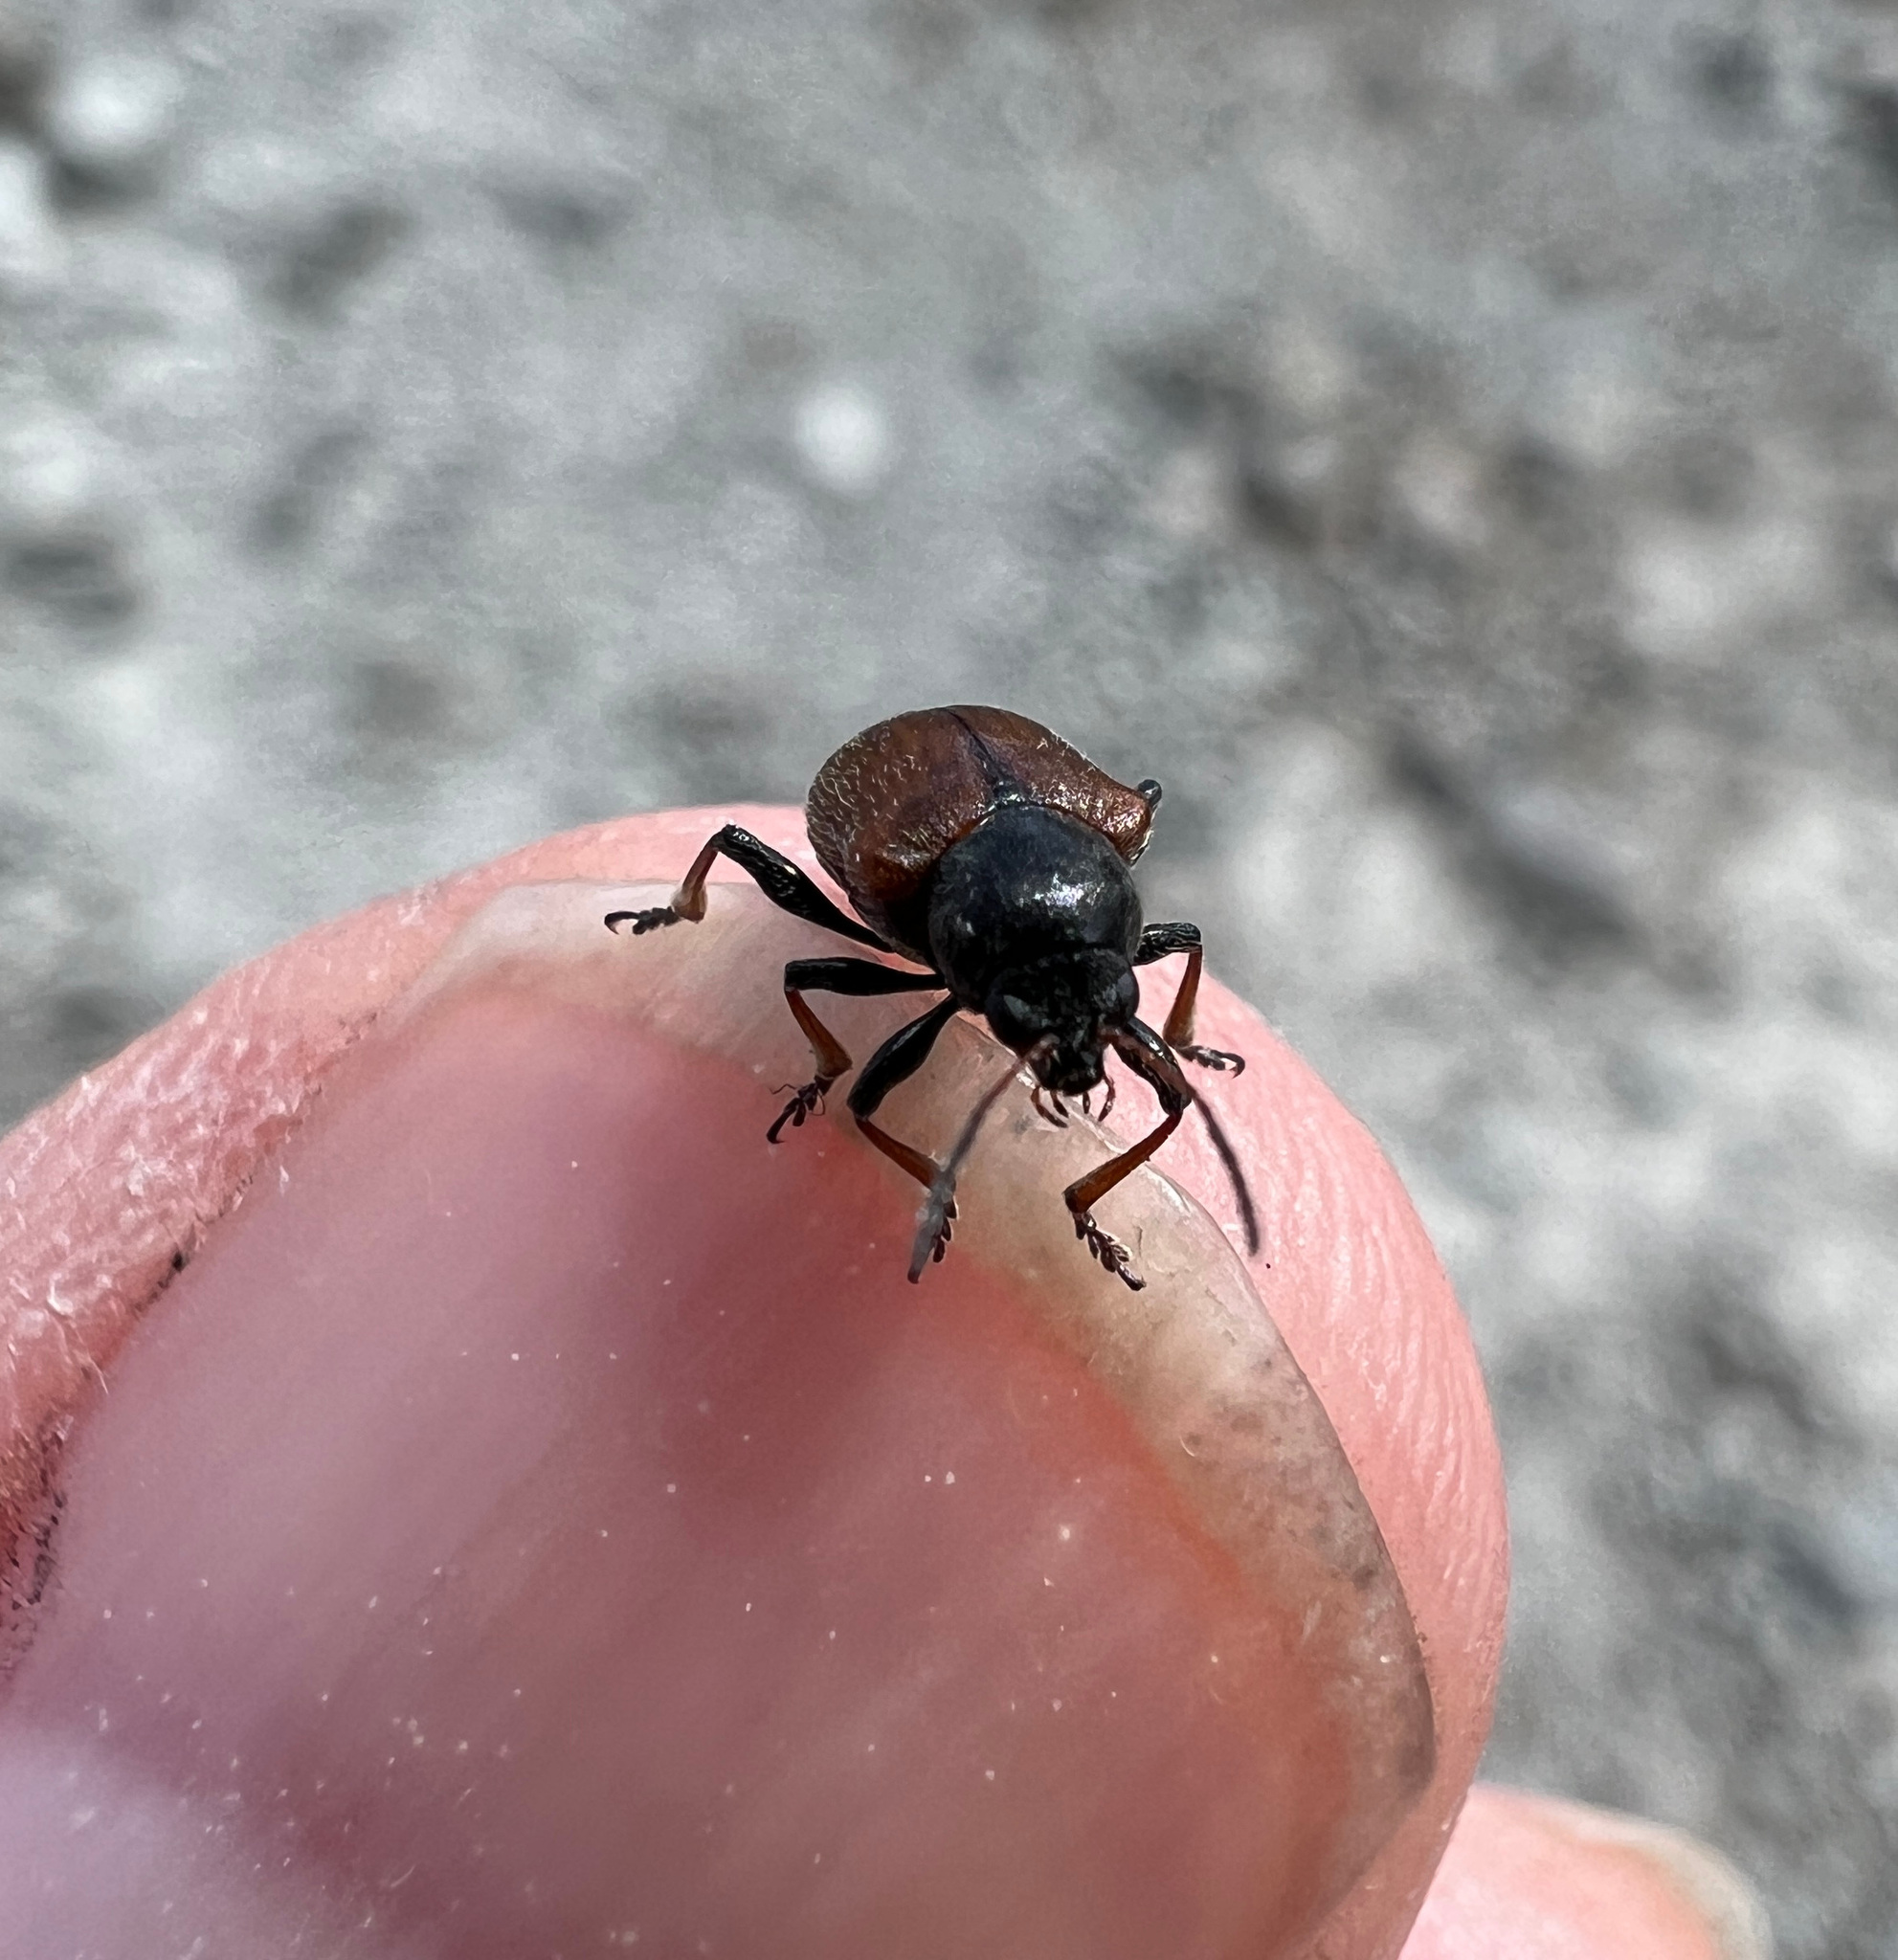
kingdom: Animalia
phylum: Arthropoda
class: Insecta
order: Coleoptera
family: Chrysomelidae
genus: Bromius
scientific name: Bromius obscurus
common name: Western grape rootworm
